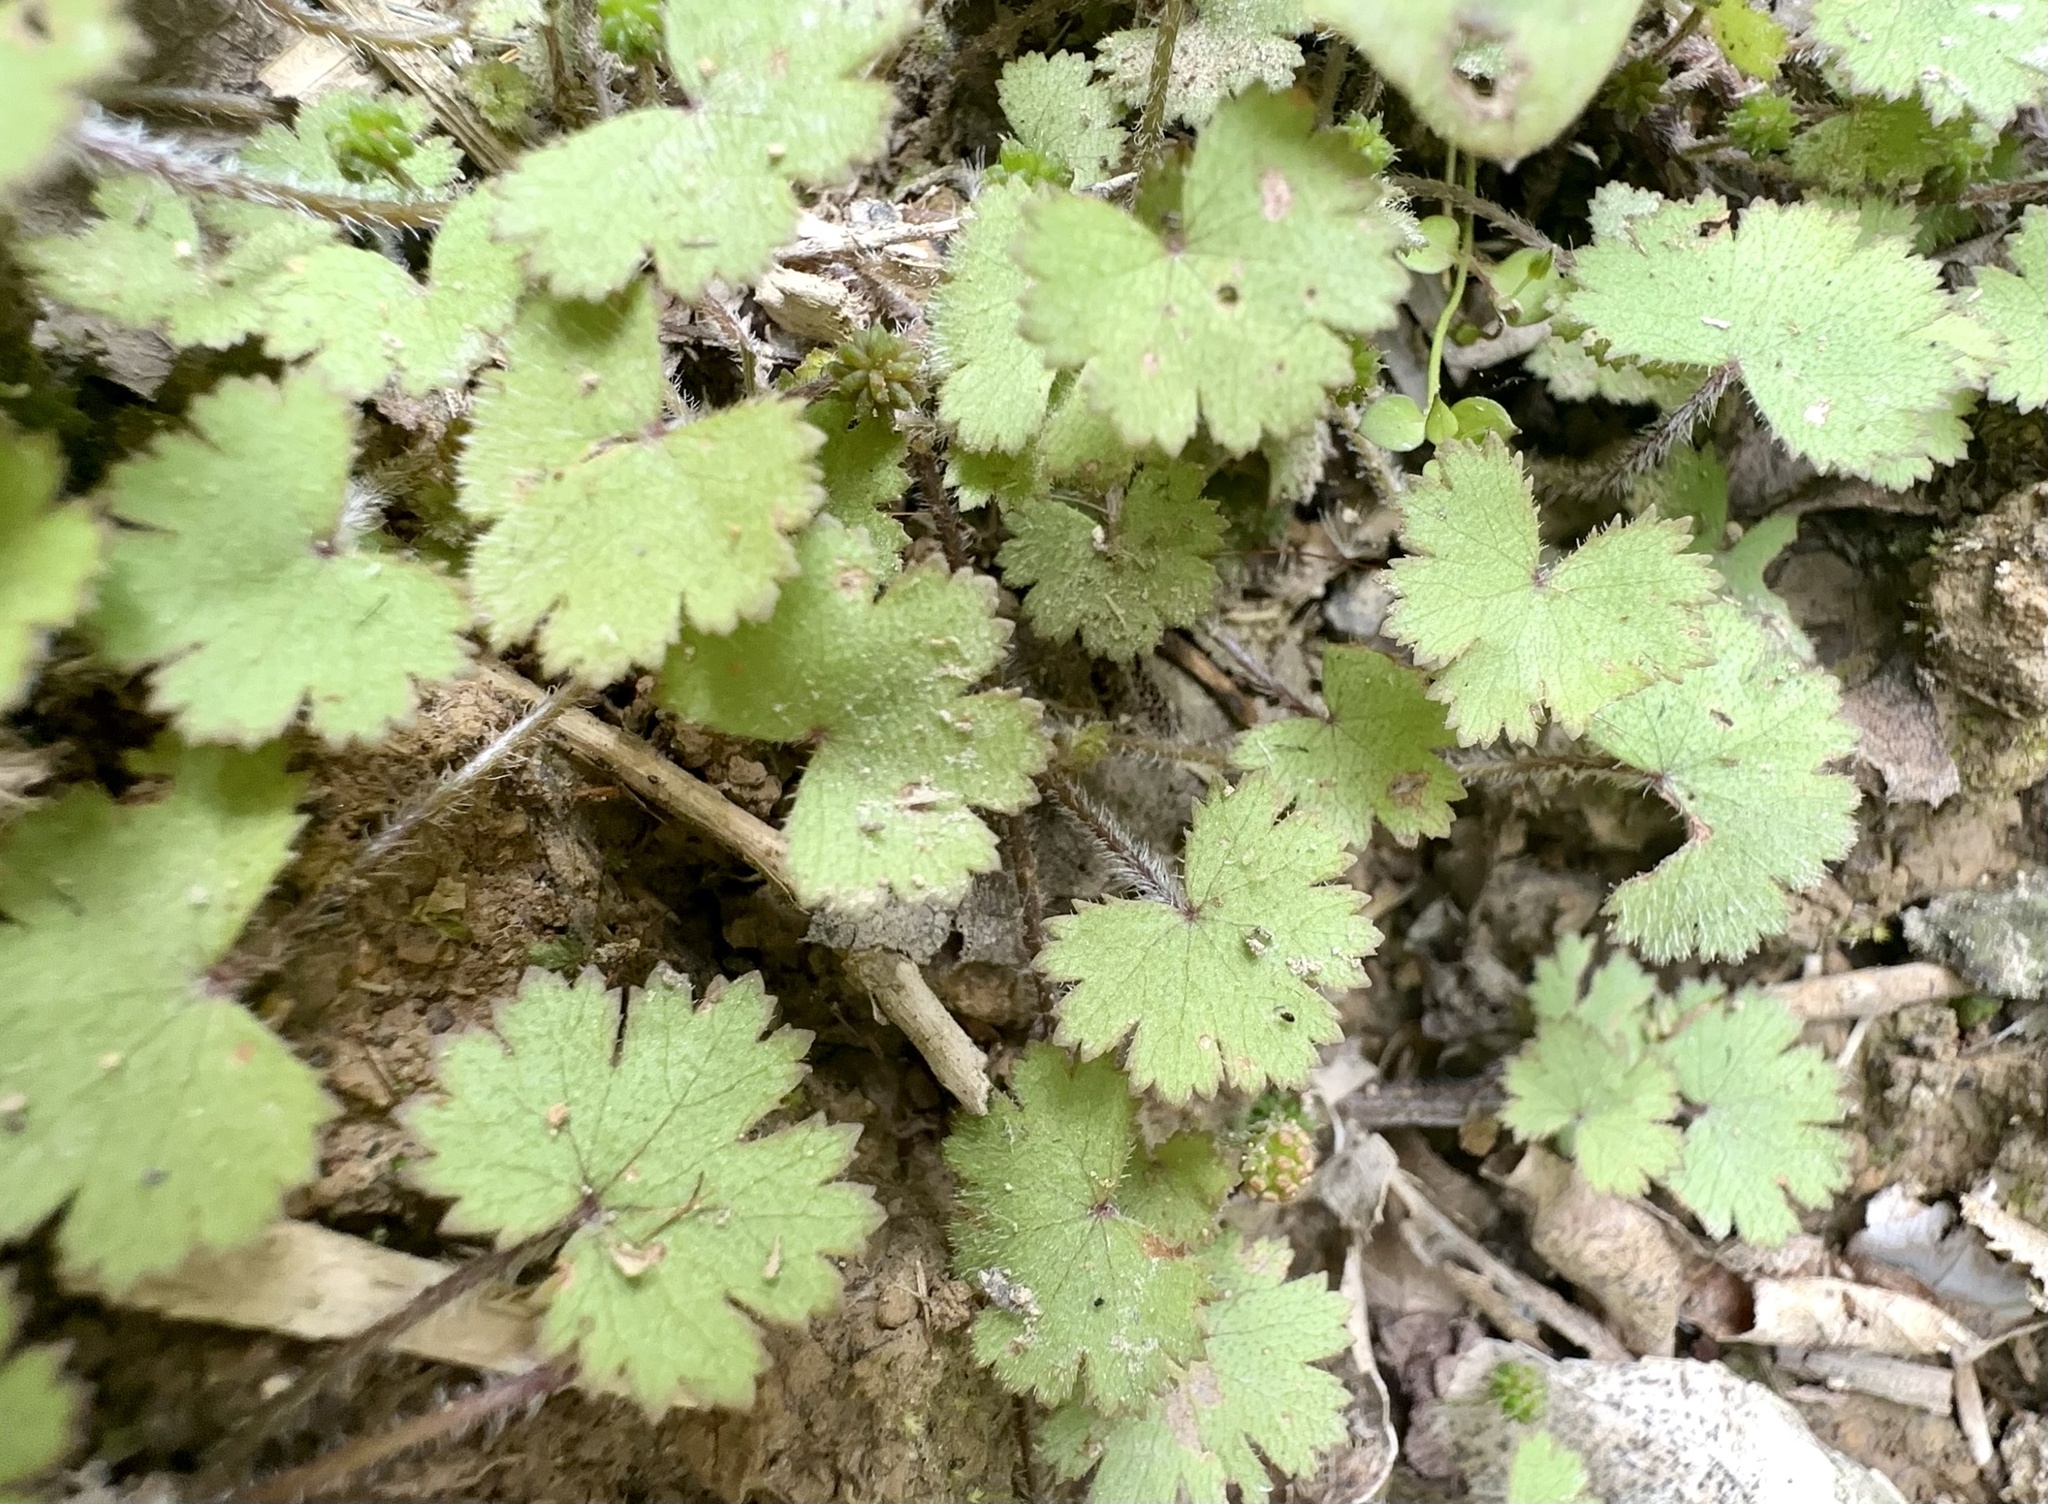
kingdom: Plantae
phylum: Tracheophyta
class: Magnoliopsida
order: Apiales
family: Araliaceae
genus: Hydrocotyle
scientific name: Hydrocotyle moschata
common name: Hairy pennywort
